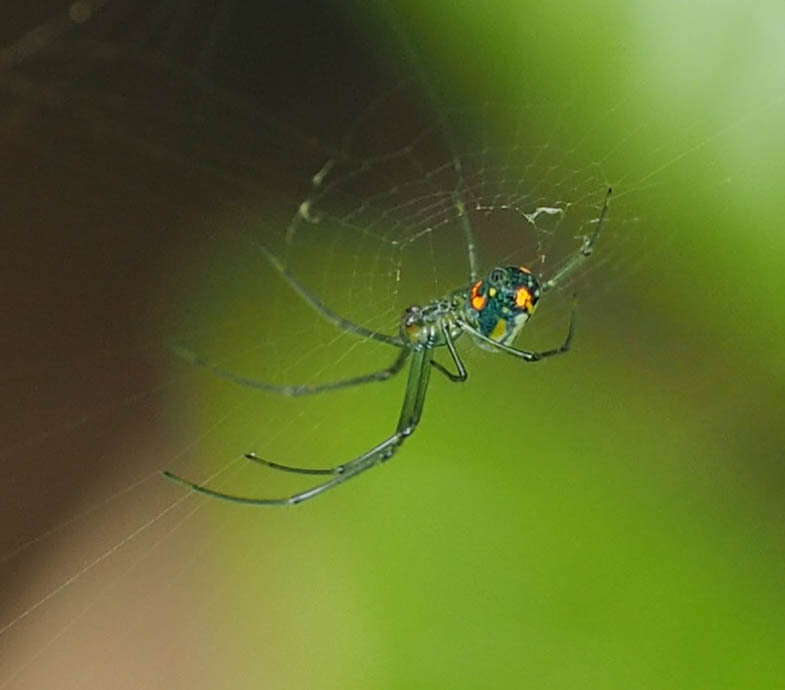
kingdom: Animalia
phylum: Arthropoda
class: Arachnida
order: Araneae
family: Tetragnathidae
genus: Leucauge
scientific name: Leucauge argyrobapta
